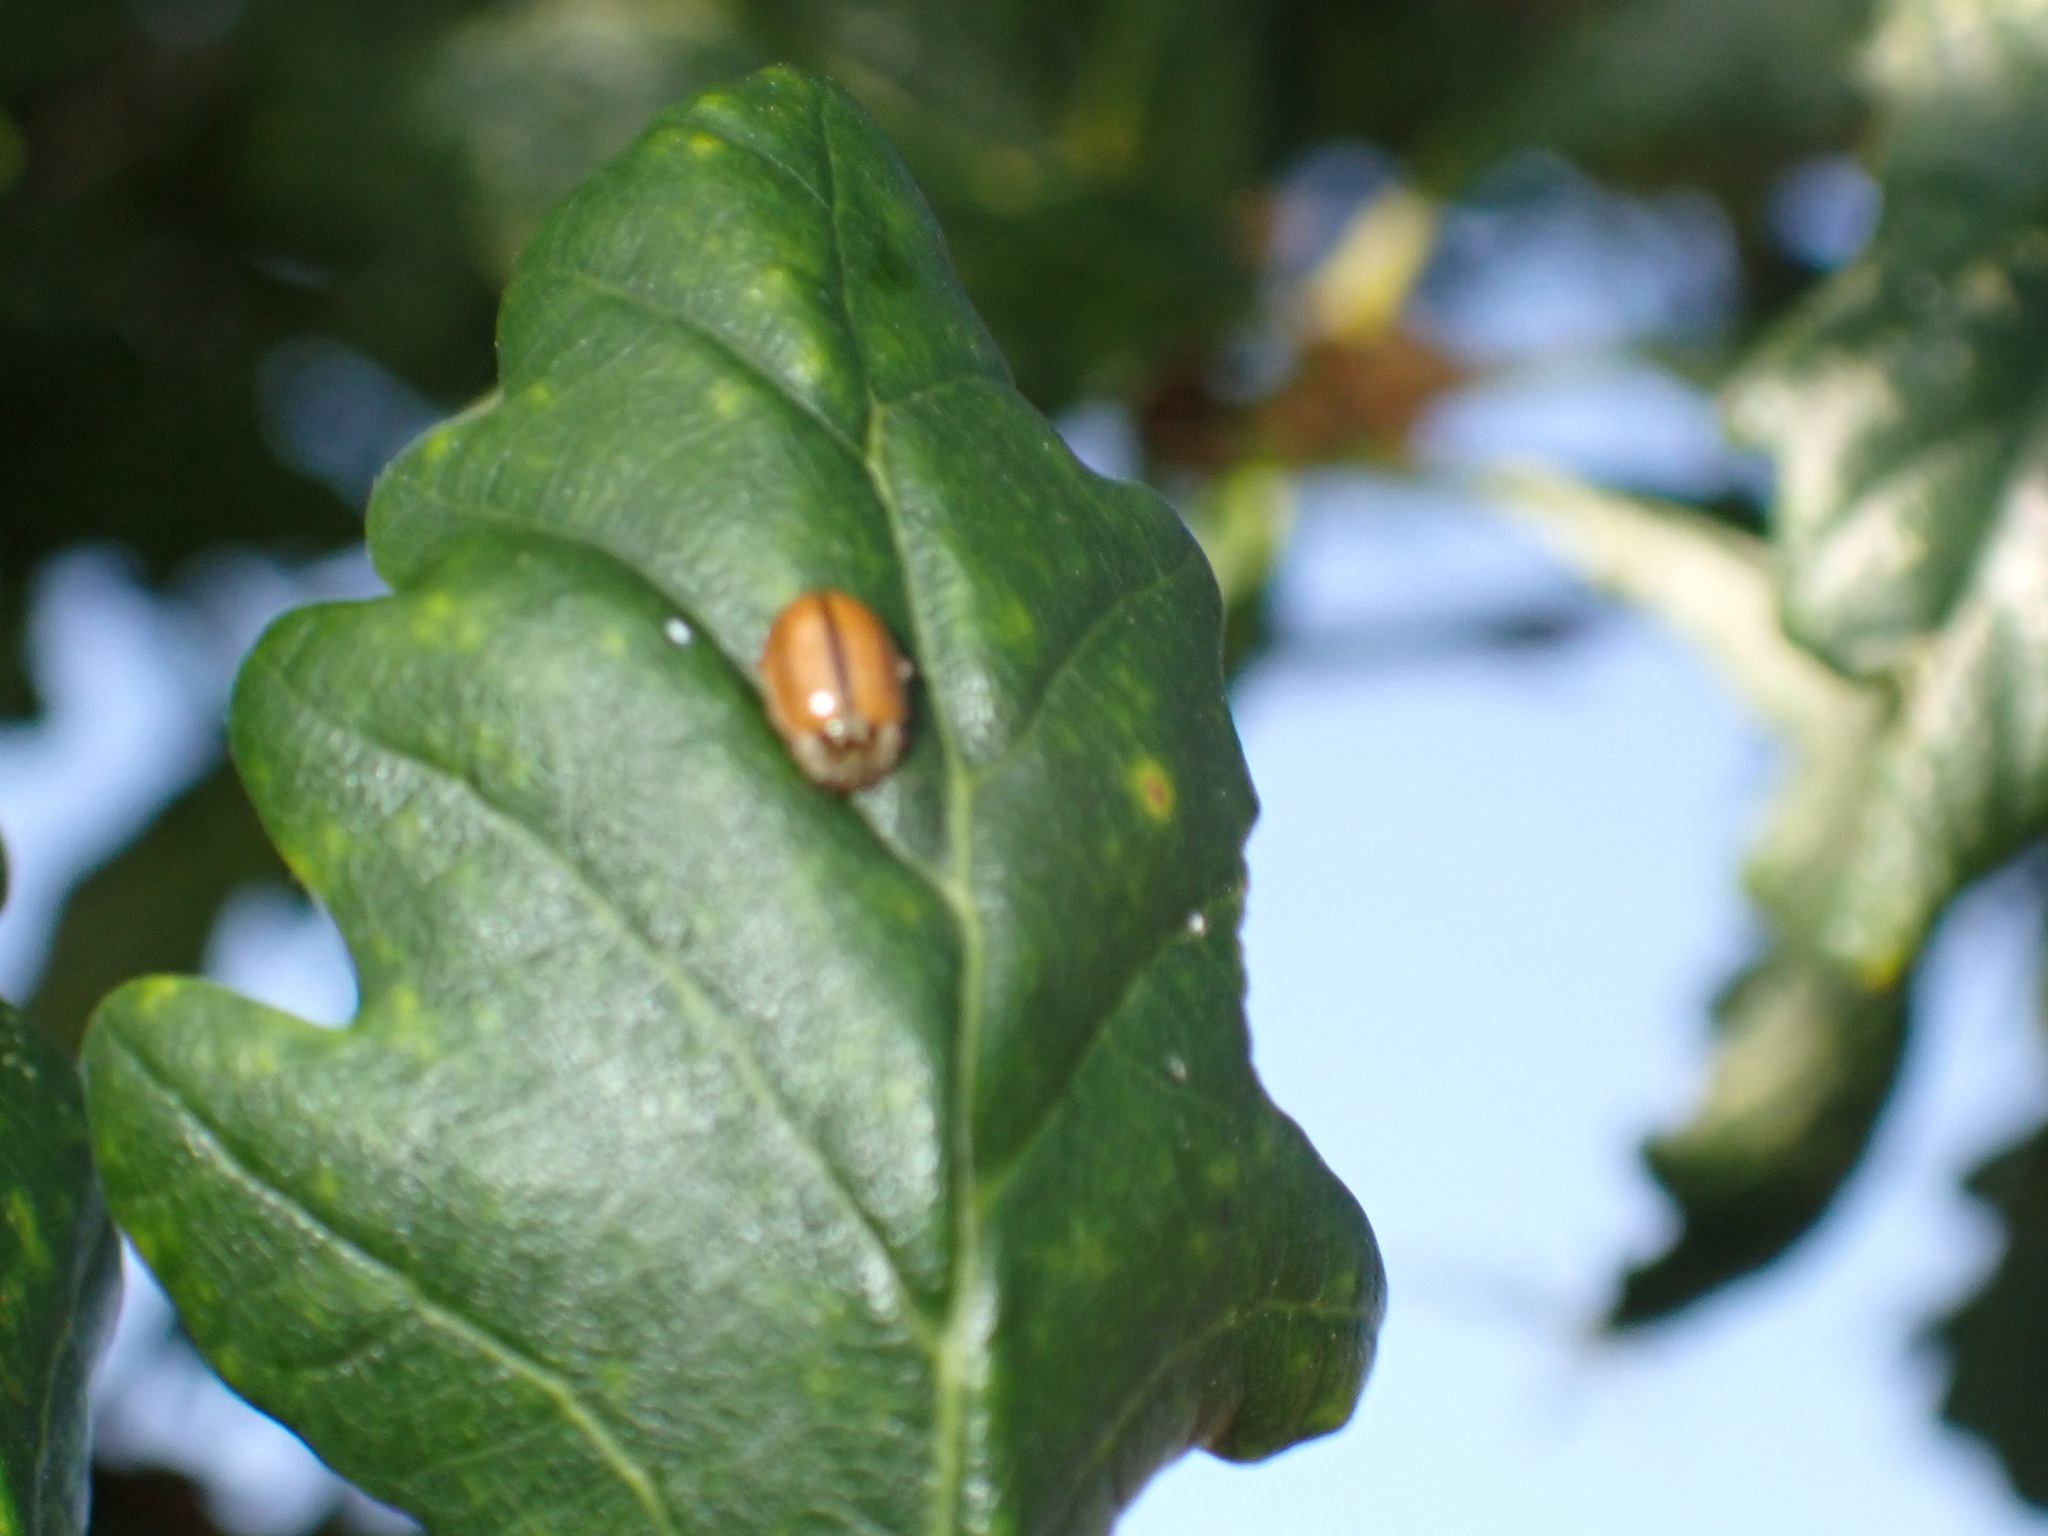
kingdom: Animalia
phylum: Arthropoda
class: Insecta
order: Coleoptera
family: Coccinellidae
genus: Aphidecta
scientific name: Aphidecta obliterata
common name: Larch ladybird
